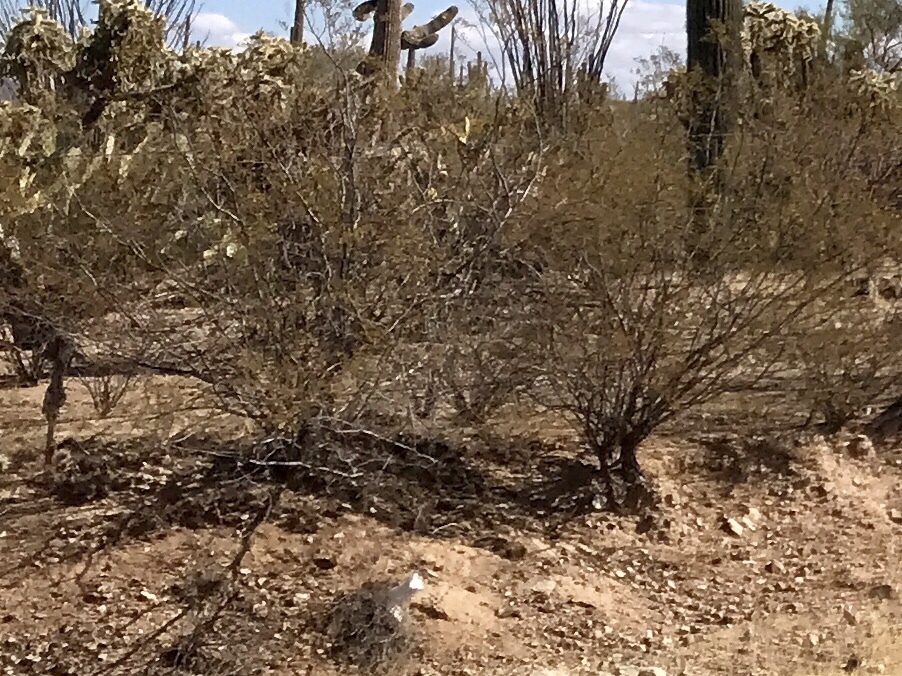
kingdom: Plantae
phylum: Tracheophyta
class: Magnoliopsida
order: Zygophyllales
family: Zygophyllaceae
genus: Larrea
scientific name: Larrea tridentata
